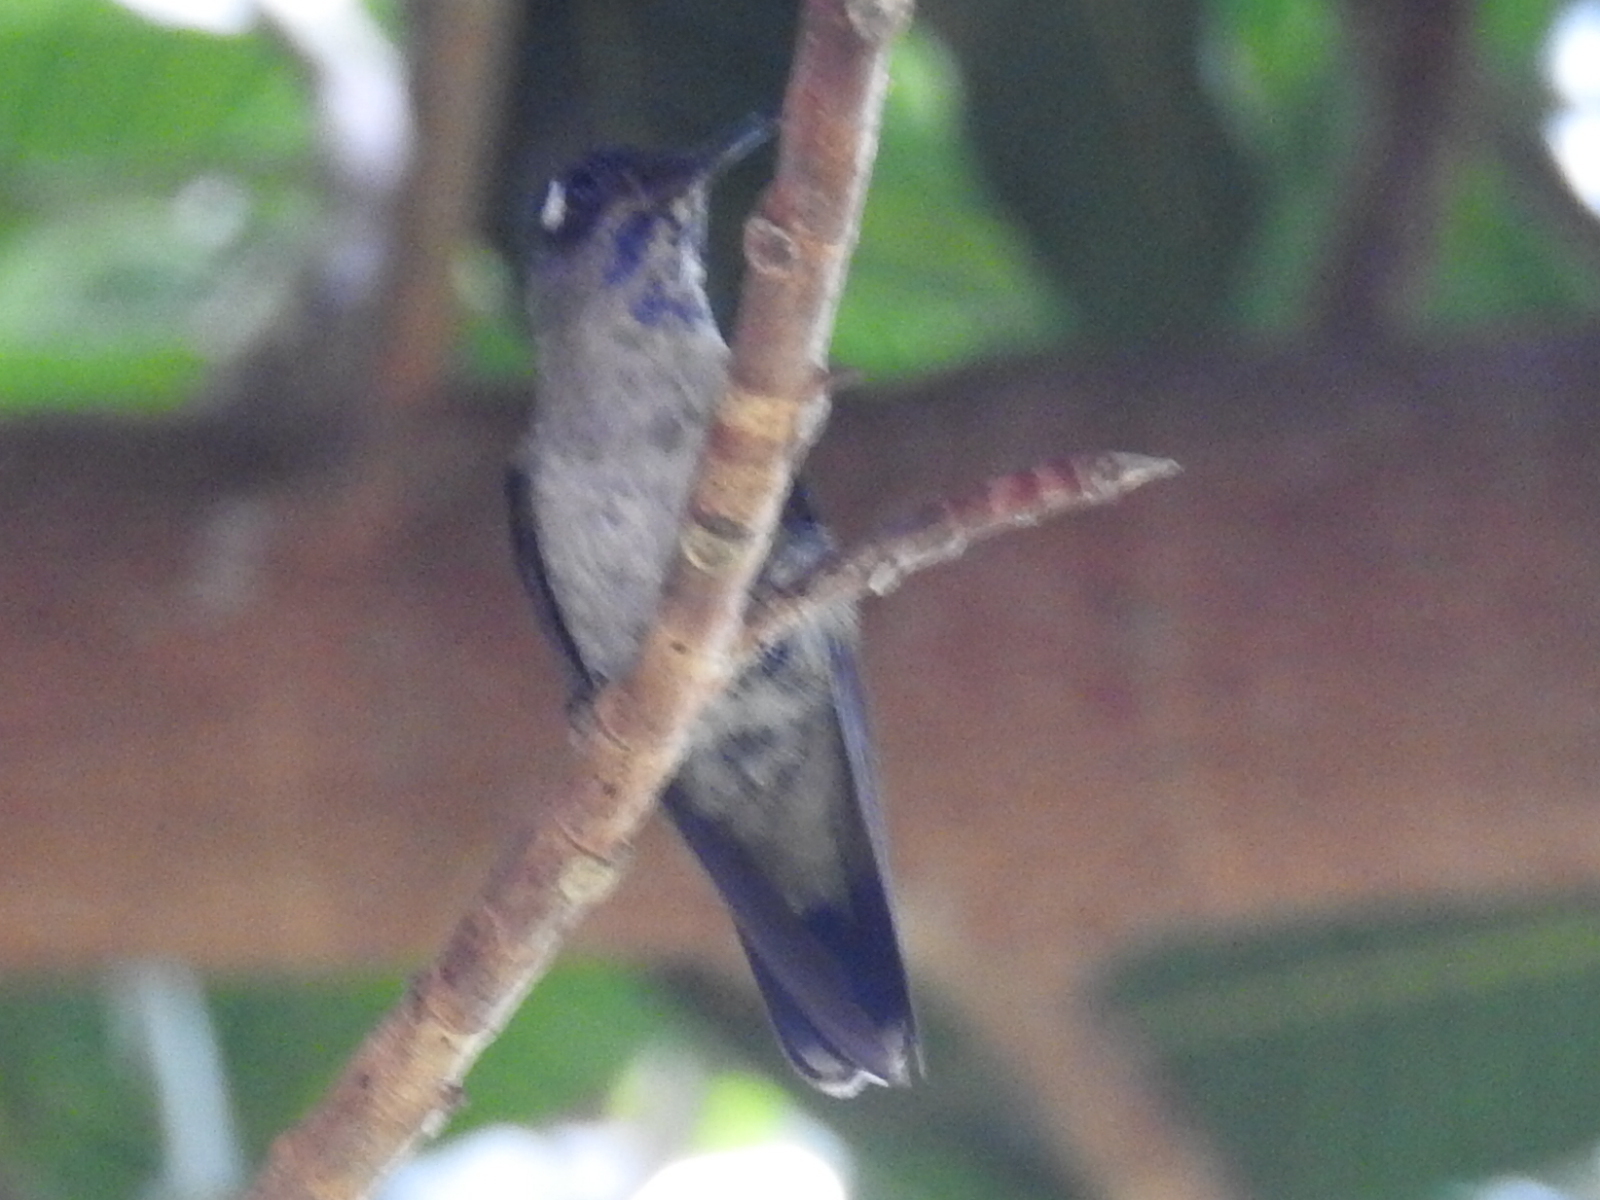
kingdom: Animalia
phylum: Chordata
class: Aves
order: Apodiformes
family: Trochilidae
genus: Klais
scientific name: Klais guimeti
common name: Violet-headed hummingbird
